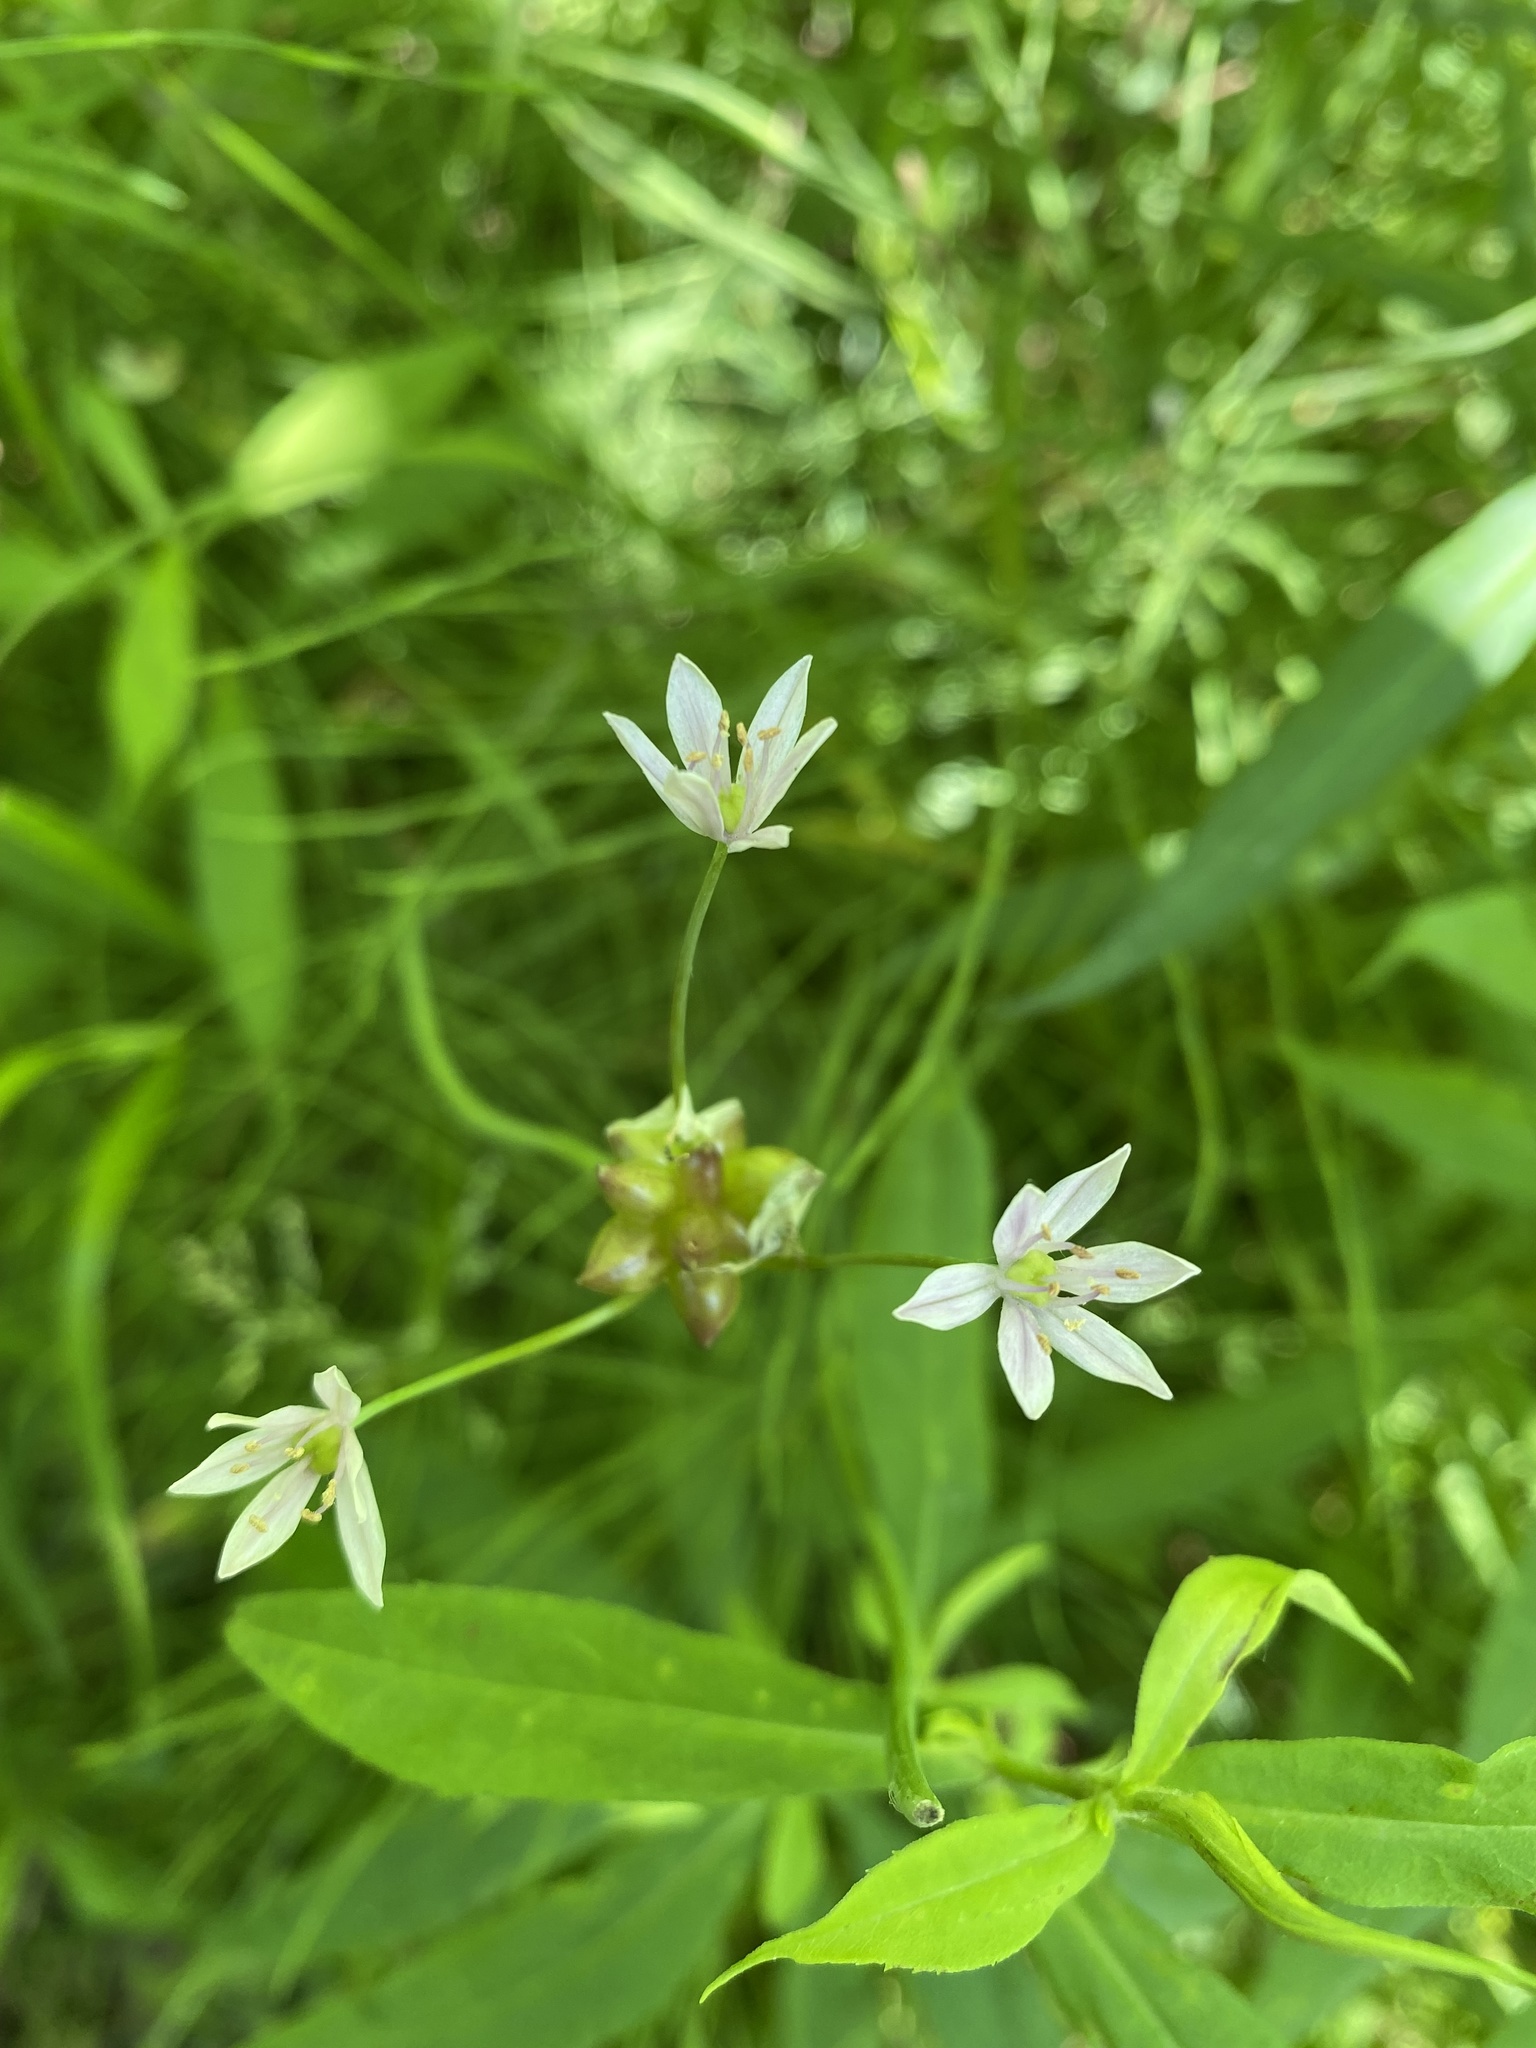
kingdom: Plantae
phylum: Tracheophyta
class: Liliopsida
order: Asparagales
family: Amaryllidaceae
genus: Allium
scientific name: Allium canadense
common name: Meadow garlic
